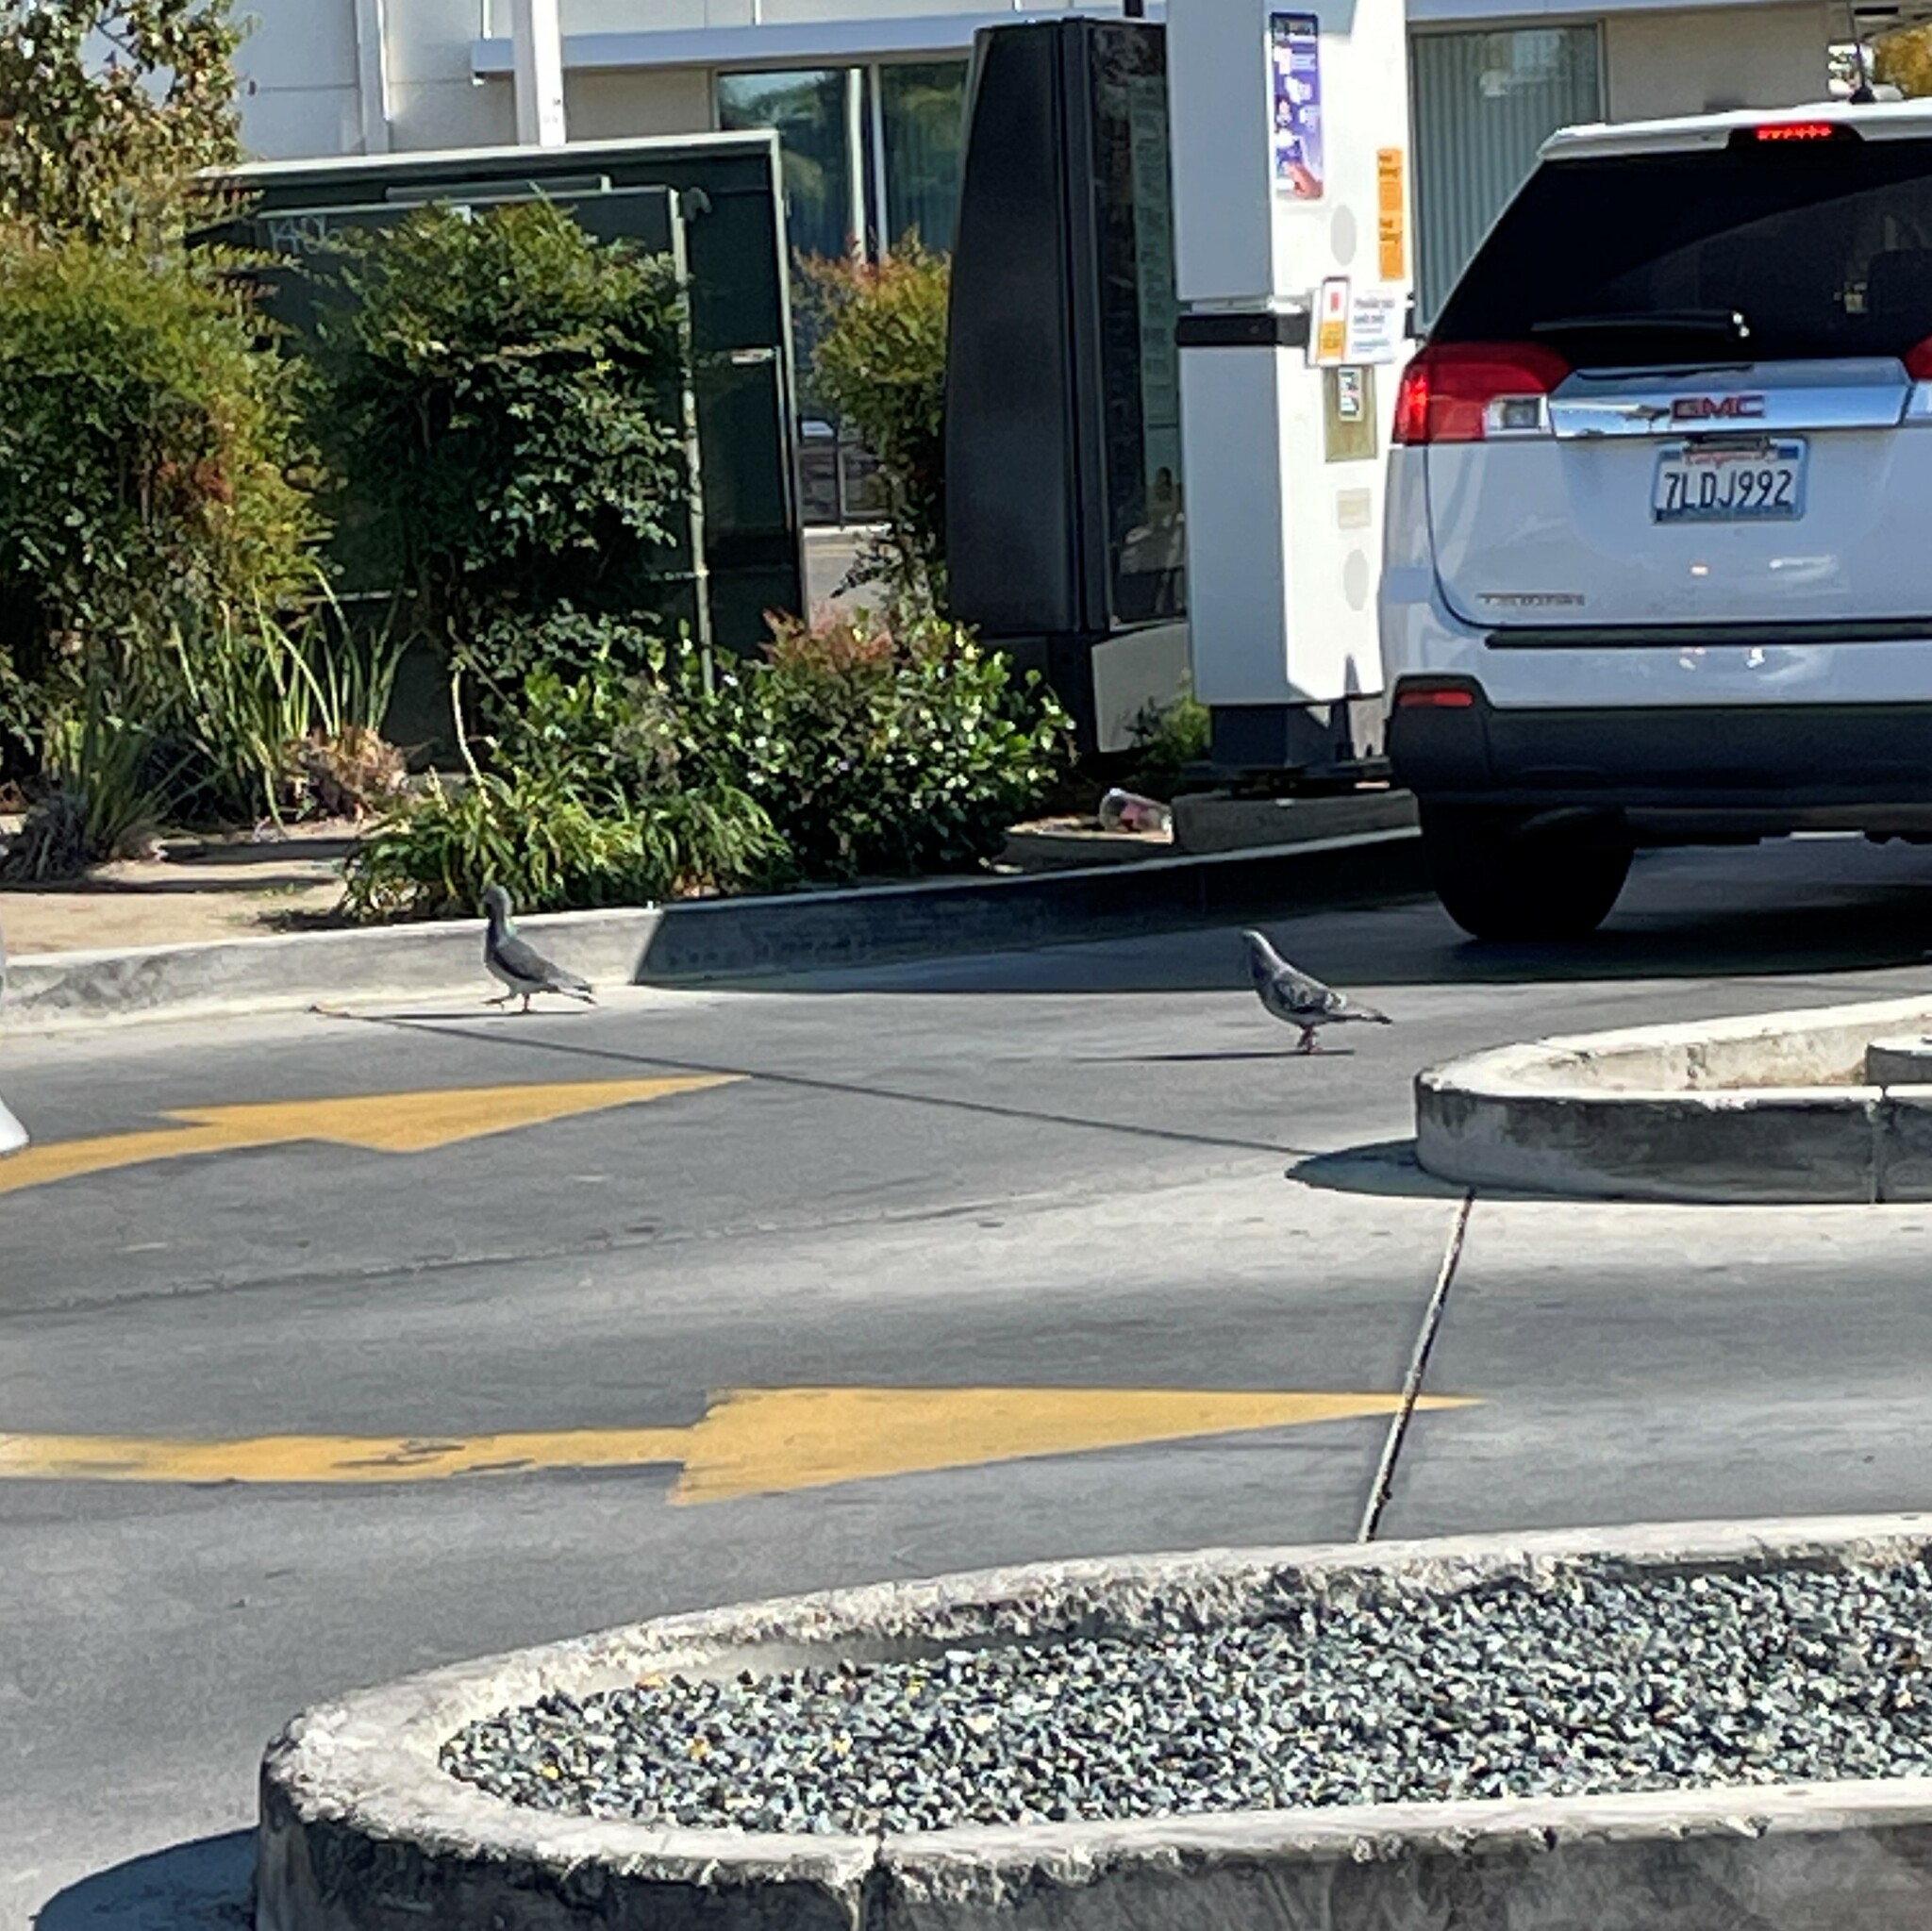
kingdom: Animalia
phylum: Chordata
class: Aves
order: Columbiformes
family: Columbidae
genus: Columba
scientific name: Columba livia
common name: Rock pigeon
